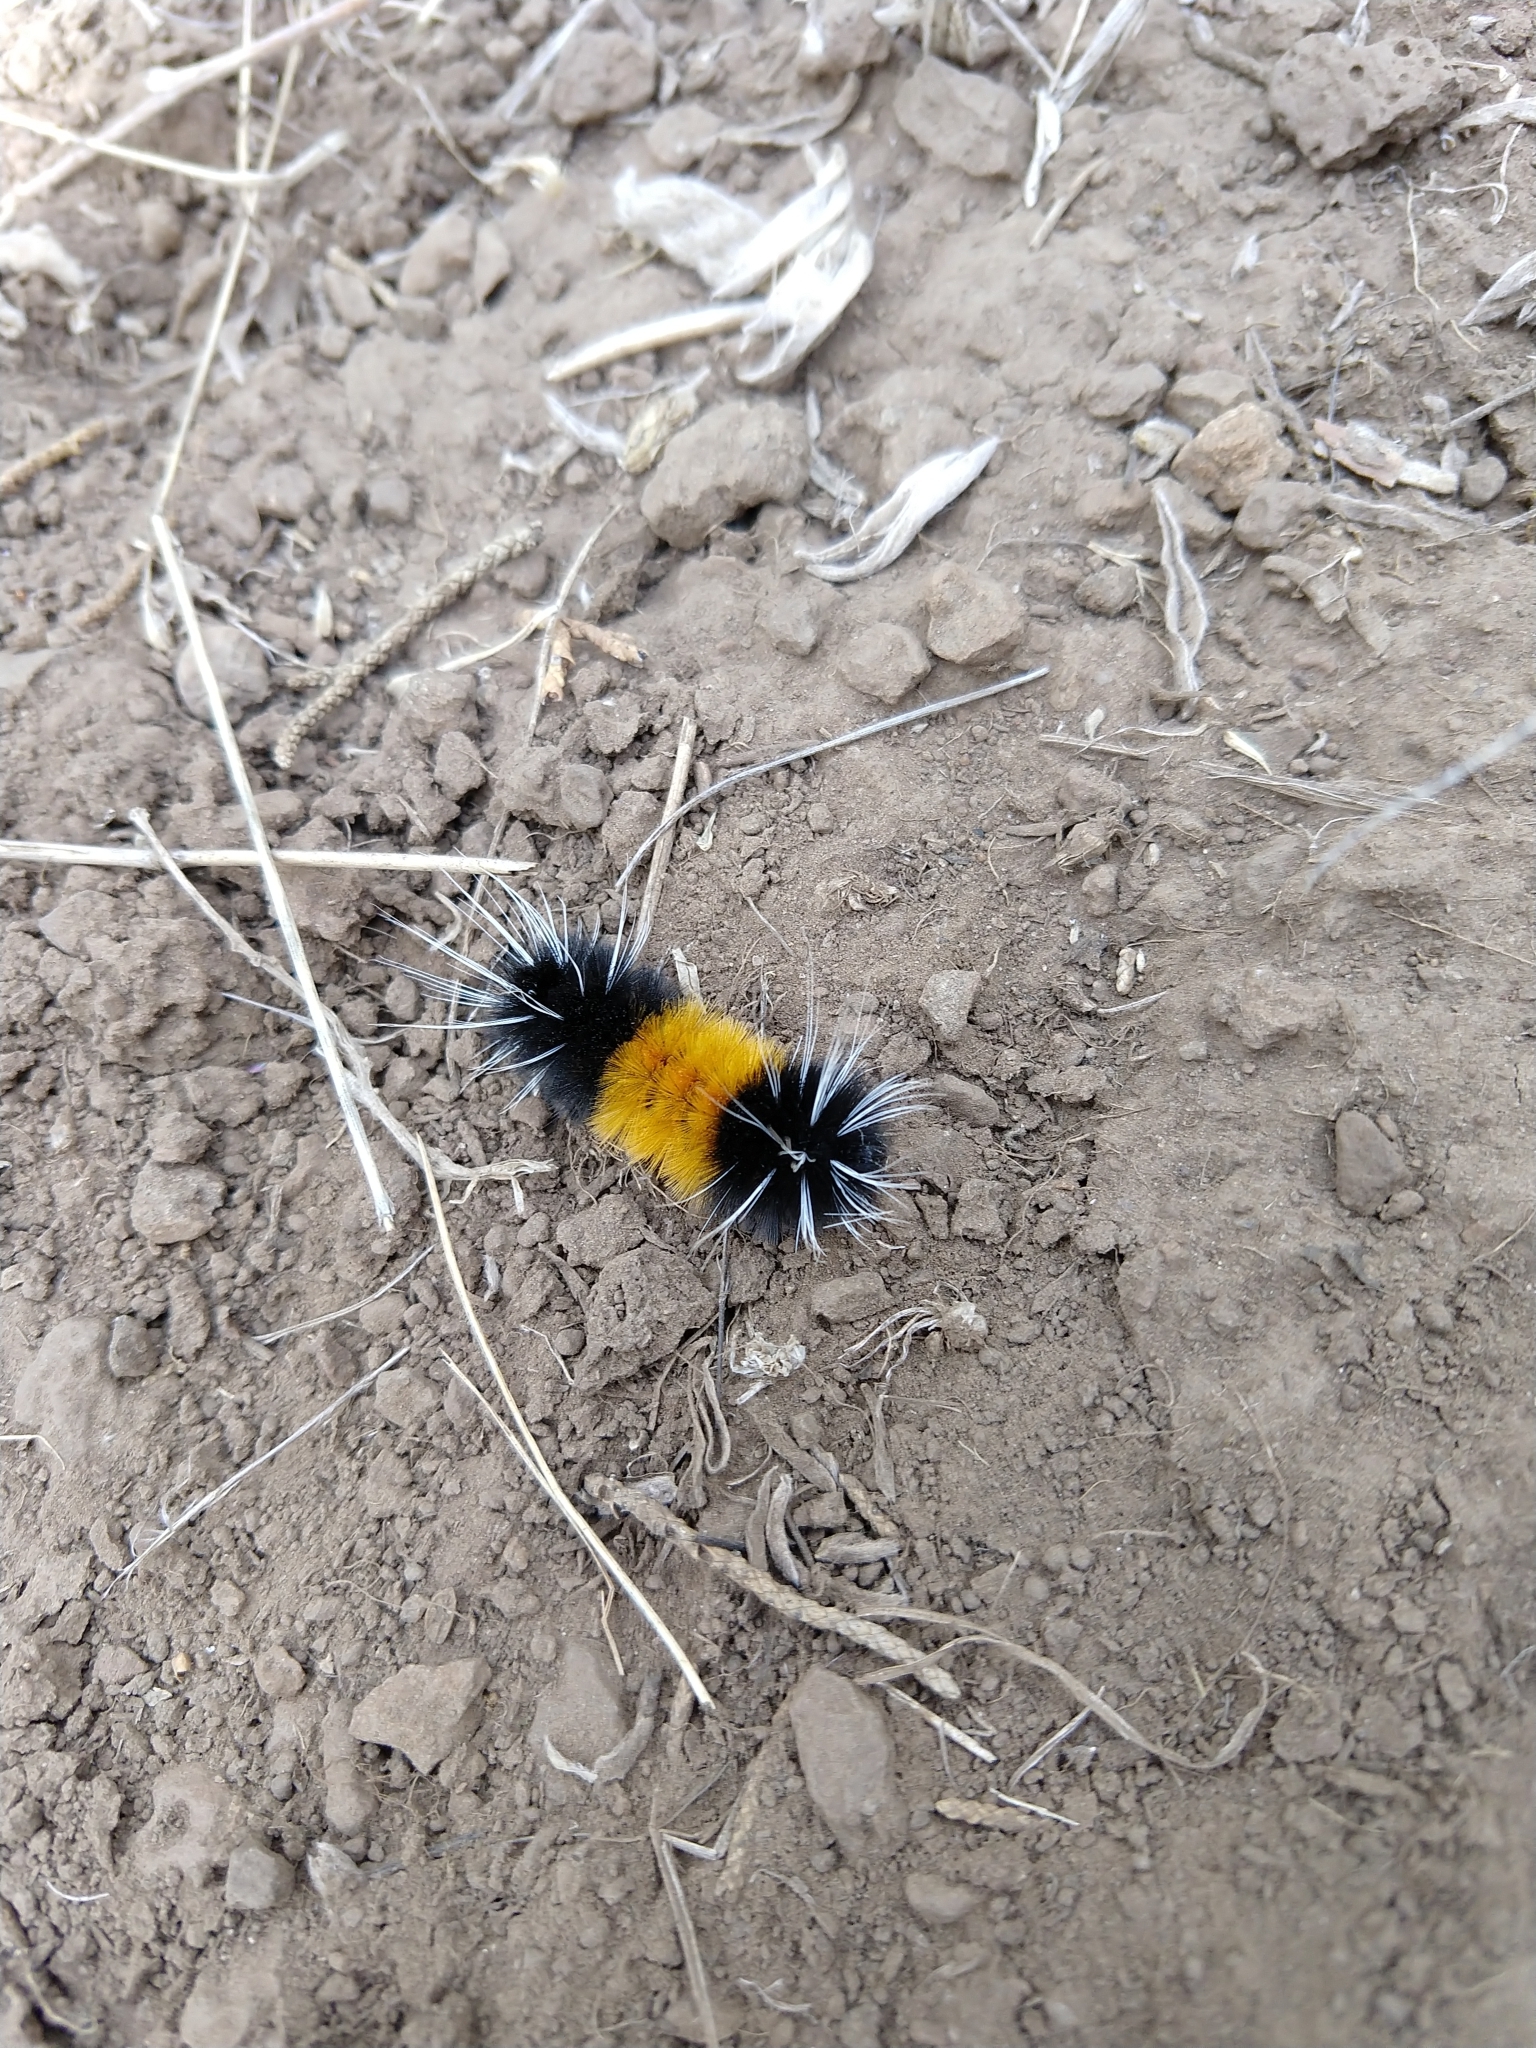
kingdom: Animalia
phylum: Arthropoda
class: Insecta
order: Lepidoptera
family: Erebidae
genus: Lophocampa
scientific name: Lophocampa maculata
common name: Spotted tussock moth
